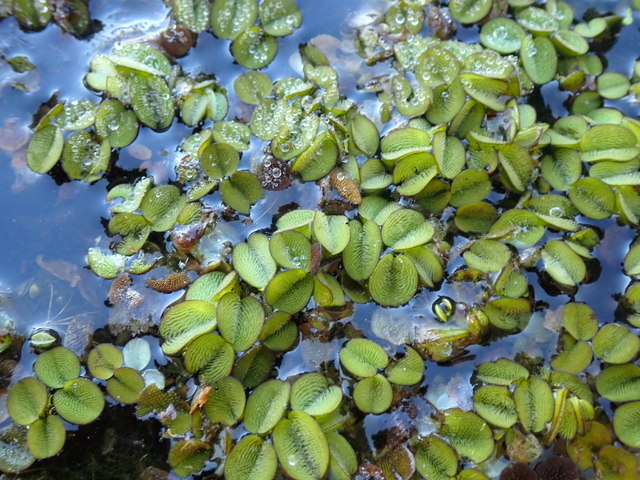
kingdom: Plantae
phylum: Tracheophyta
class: Polypodiopsida
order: Salviniales
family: Salviniaceae
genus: Salvinia
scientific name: Salvinia minima
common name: Water spangles
